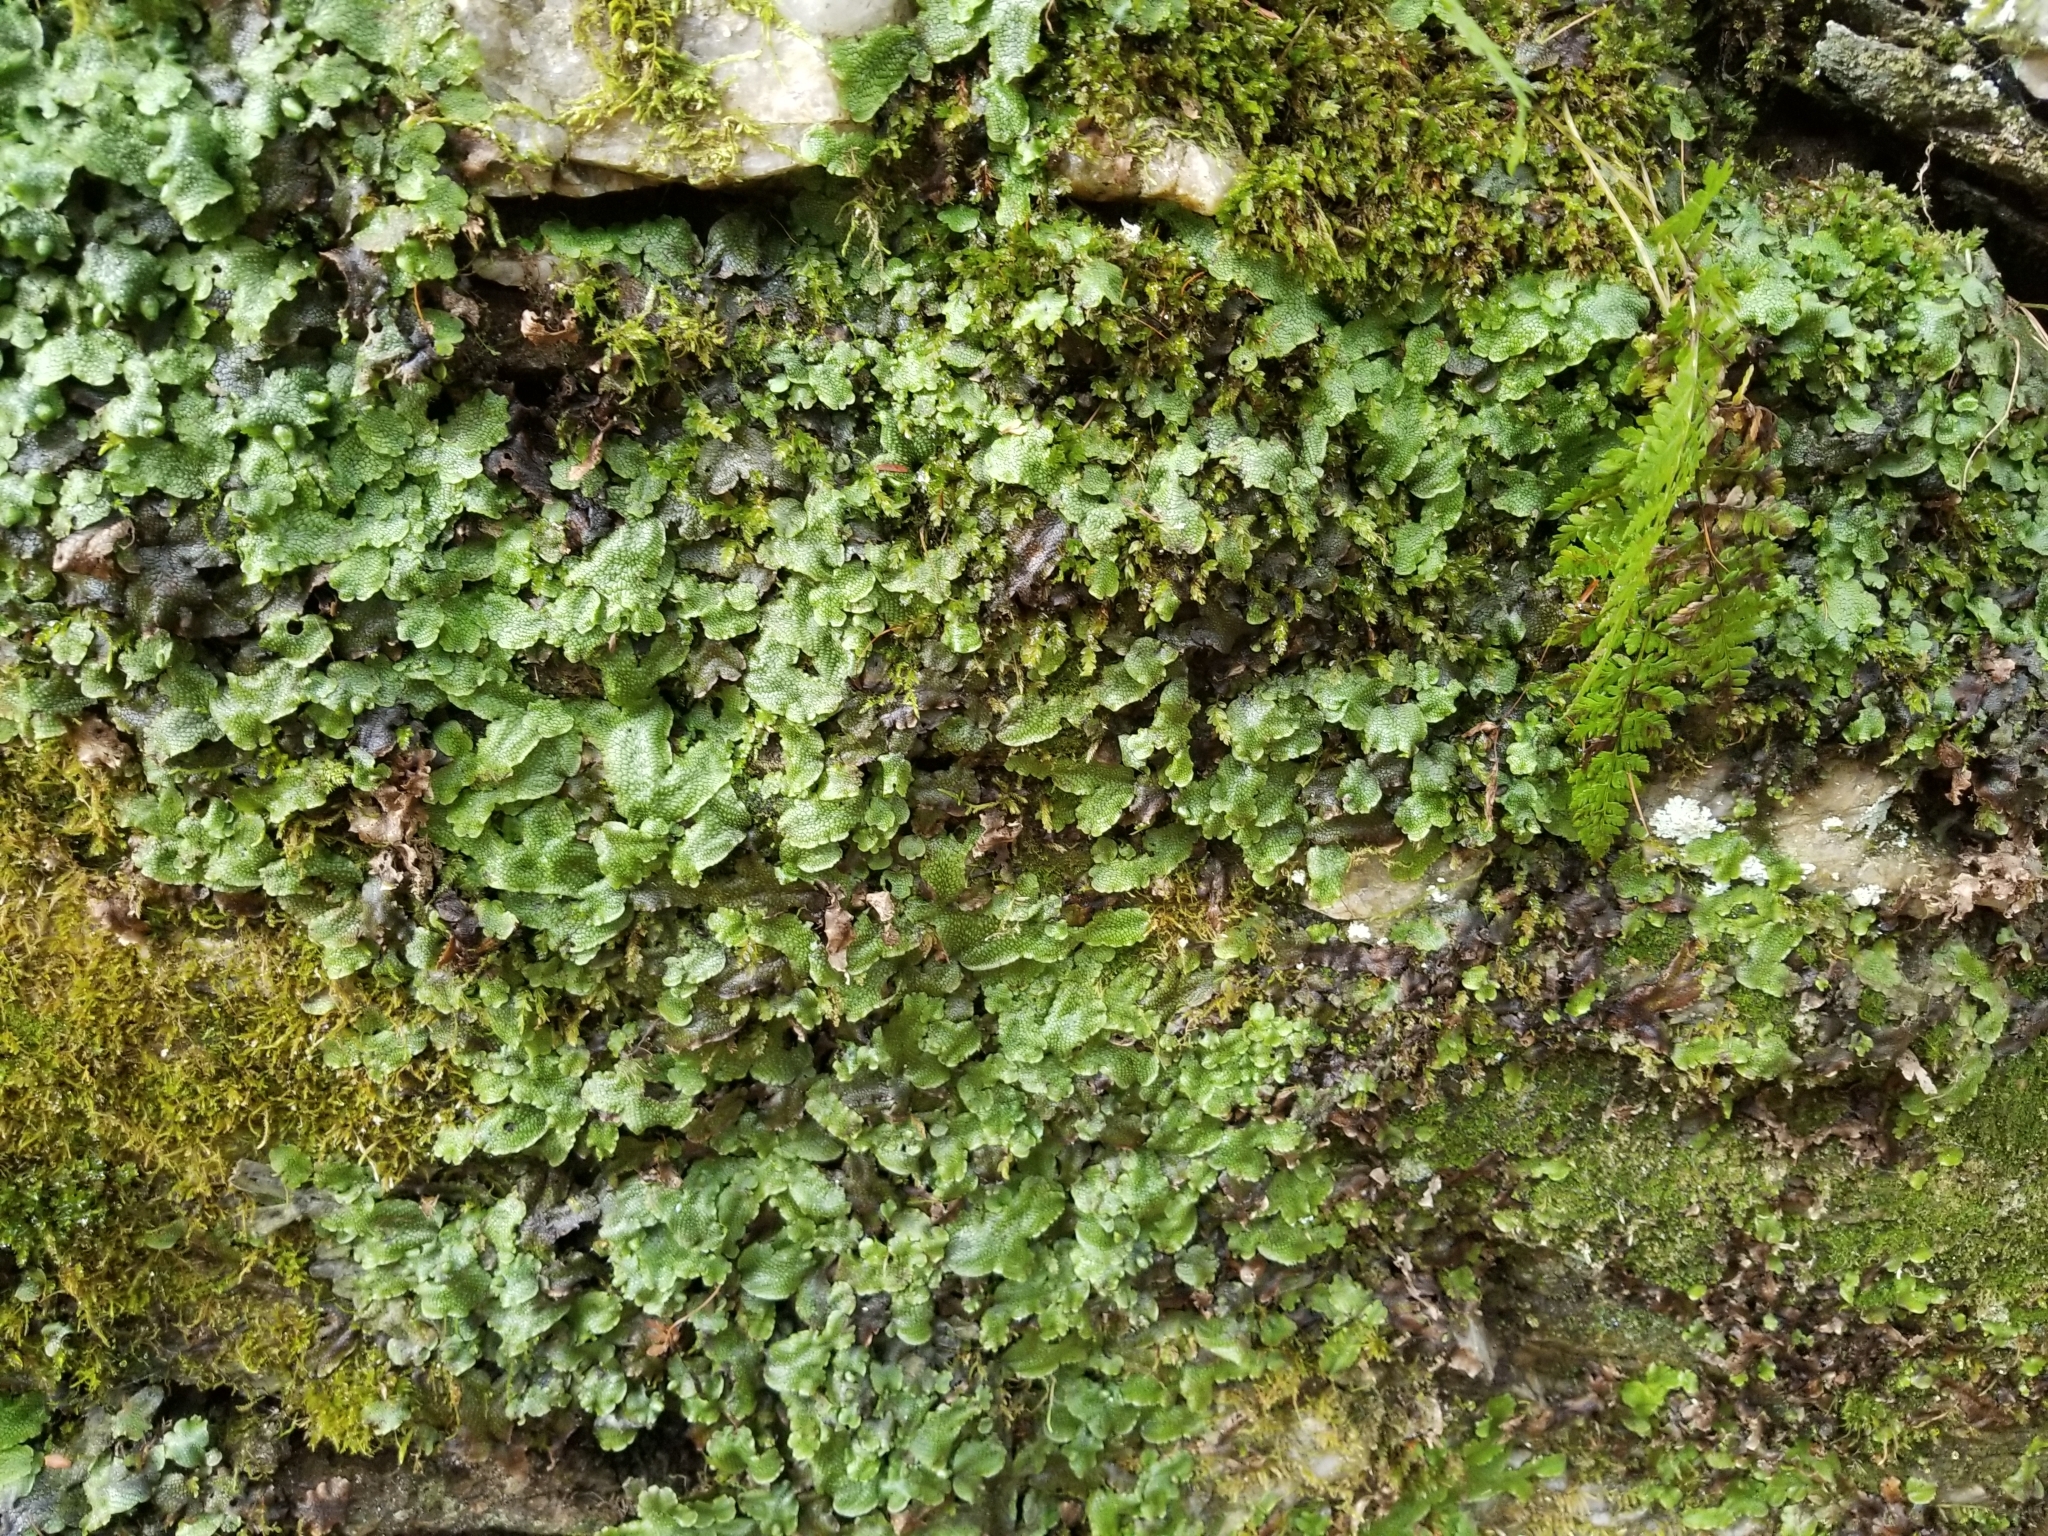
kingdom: Plantae
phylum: Marchantiophyta
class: Marchantiopsida
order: Marchantiales
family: Conocephalaceae
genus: Conocephalum
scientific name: Conocephalum salebrosum
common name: Cat-tongue liverwort
